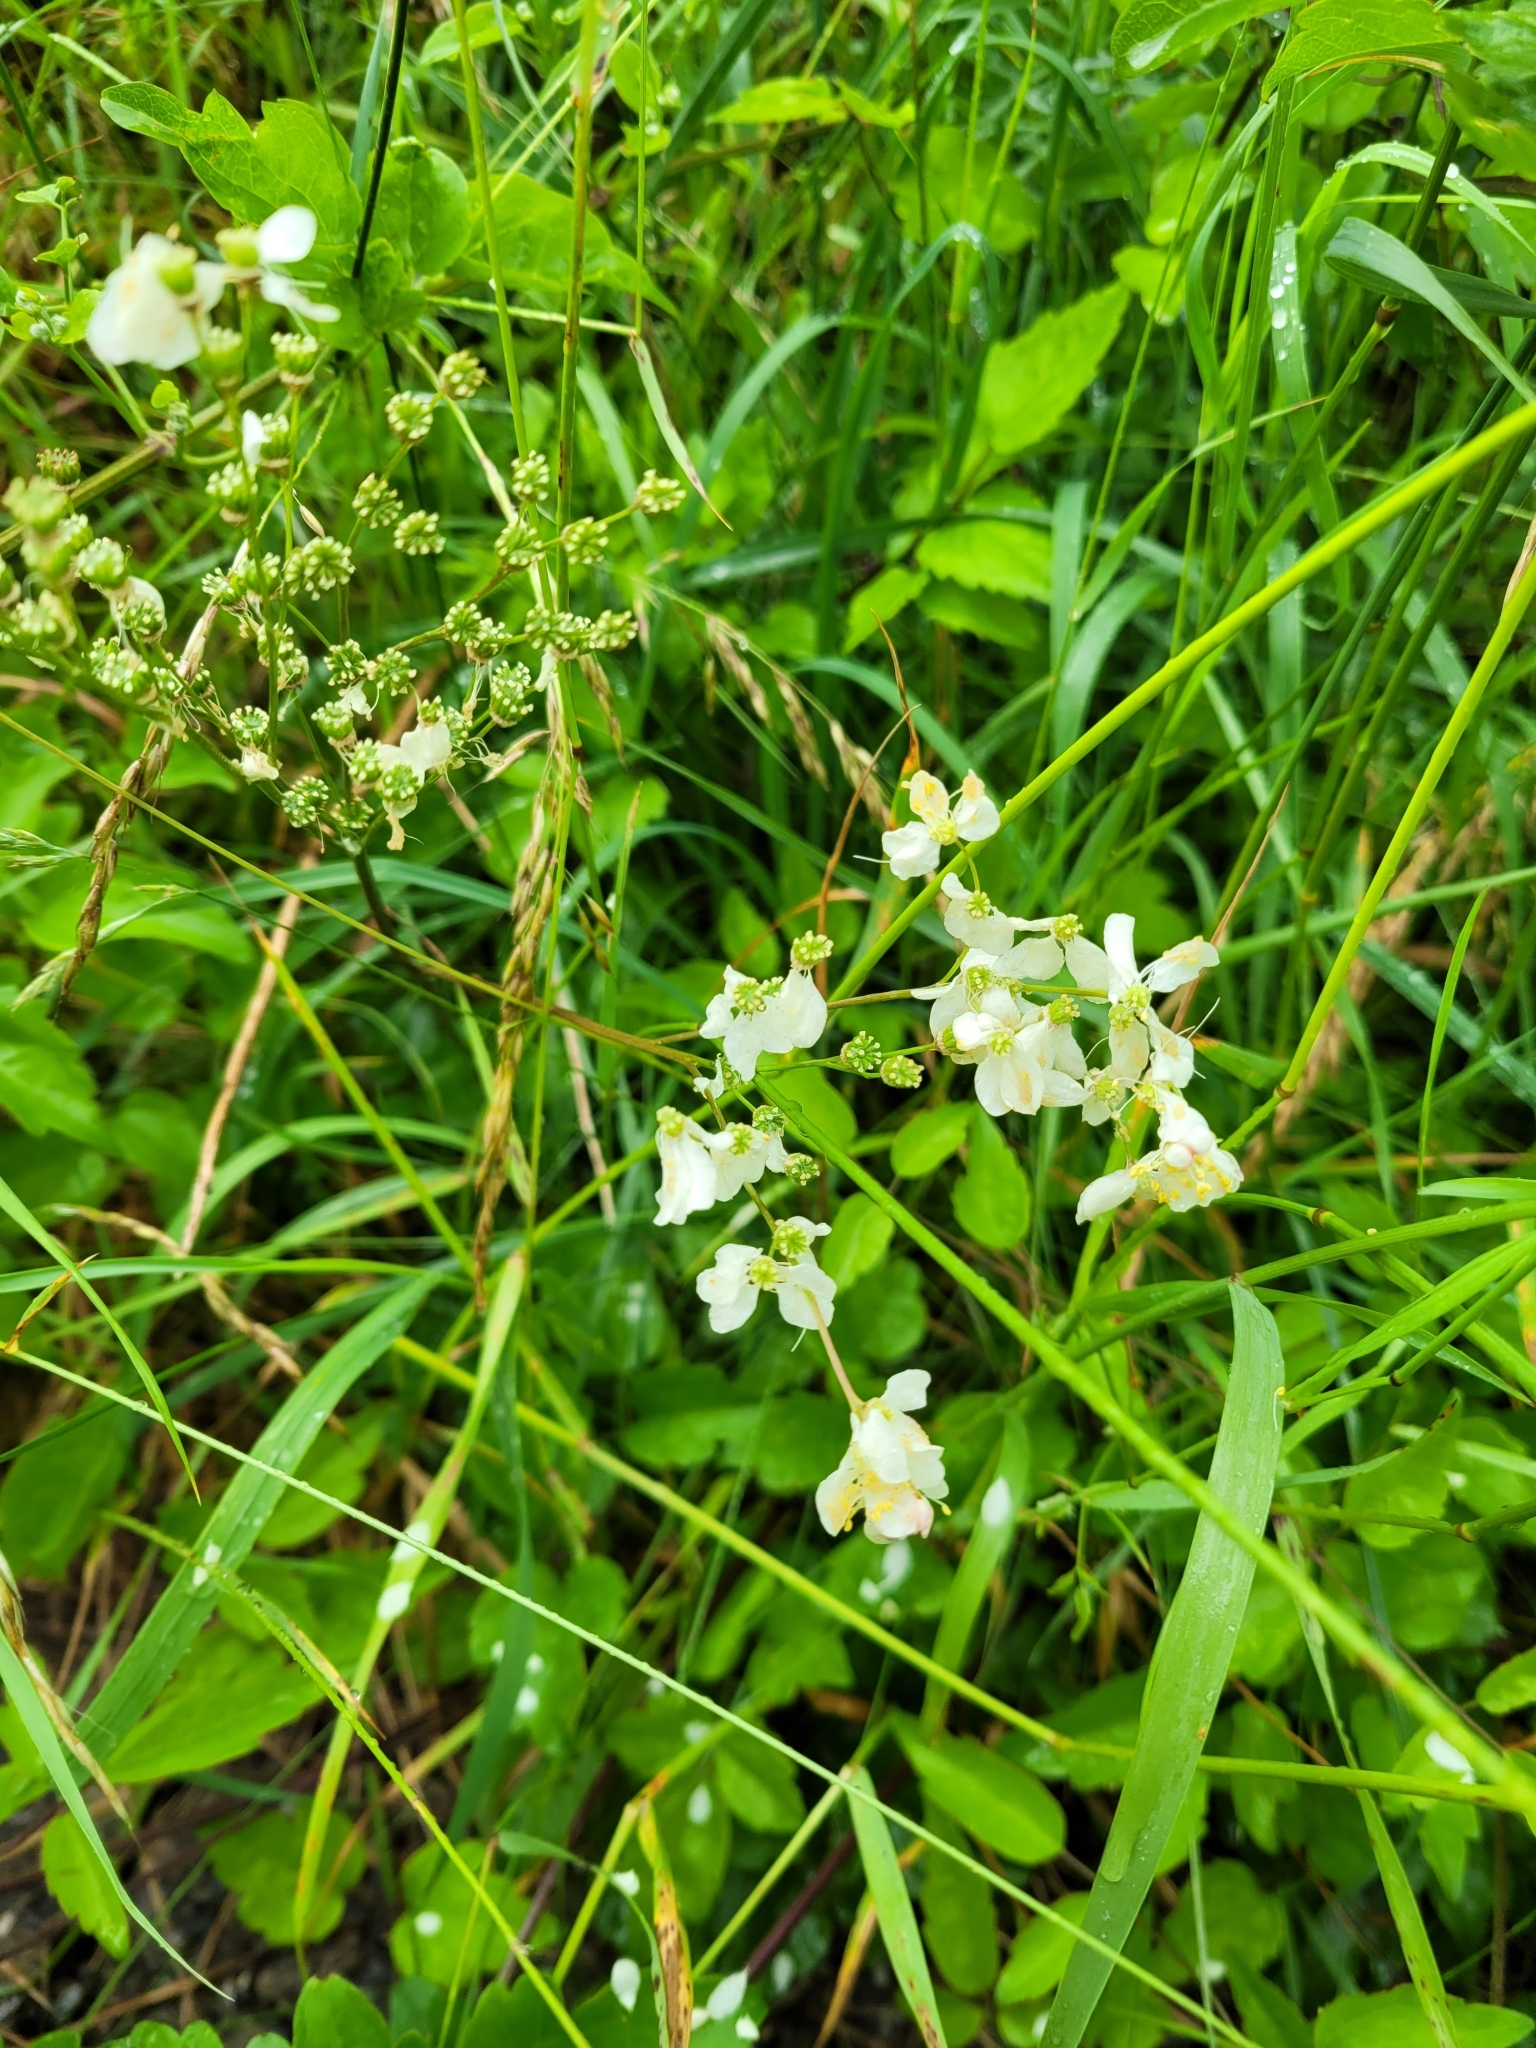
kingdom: Plantae
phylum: Tracheophyta
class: Magnoliopsida
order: Rosales
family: Rosaceae
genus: Filipendula
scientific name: Filipendula vulgaris
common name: Dropwort
